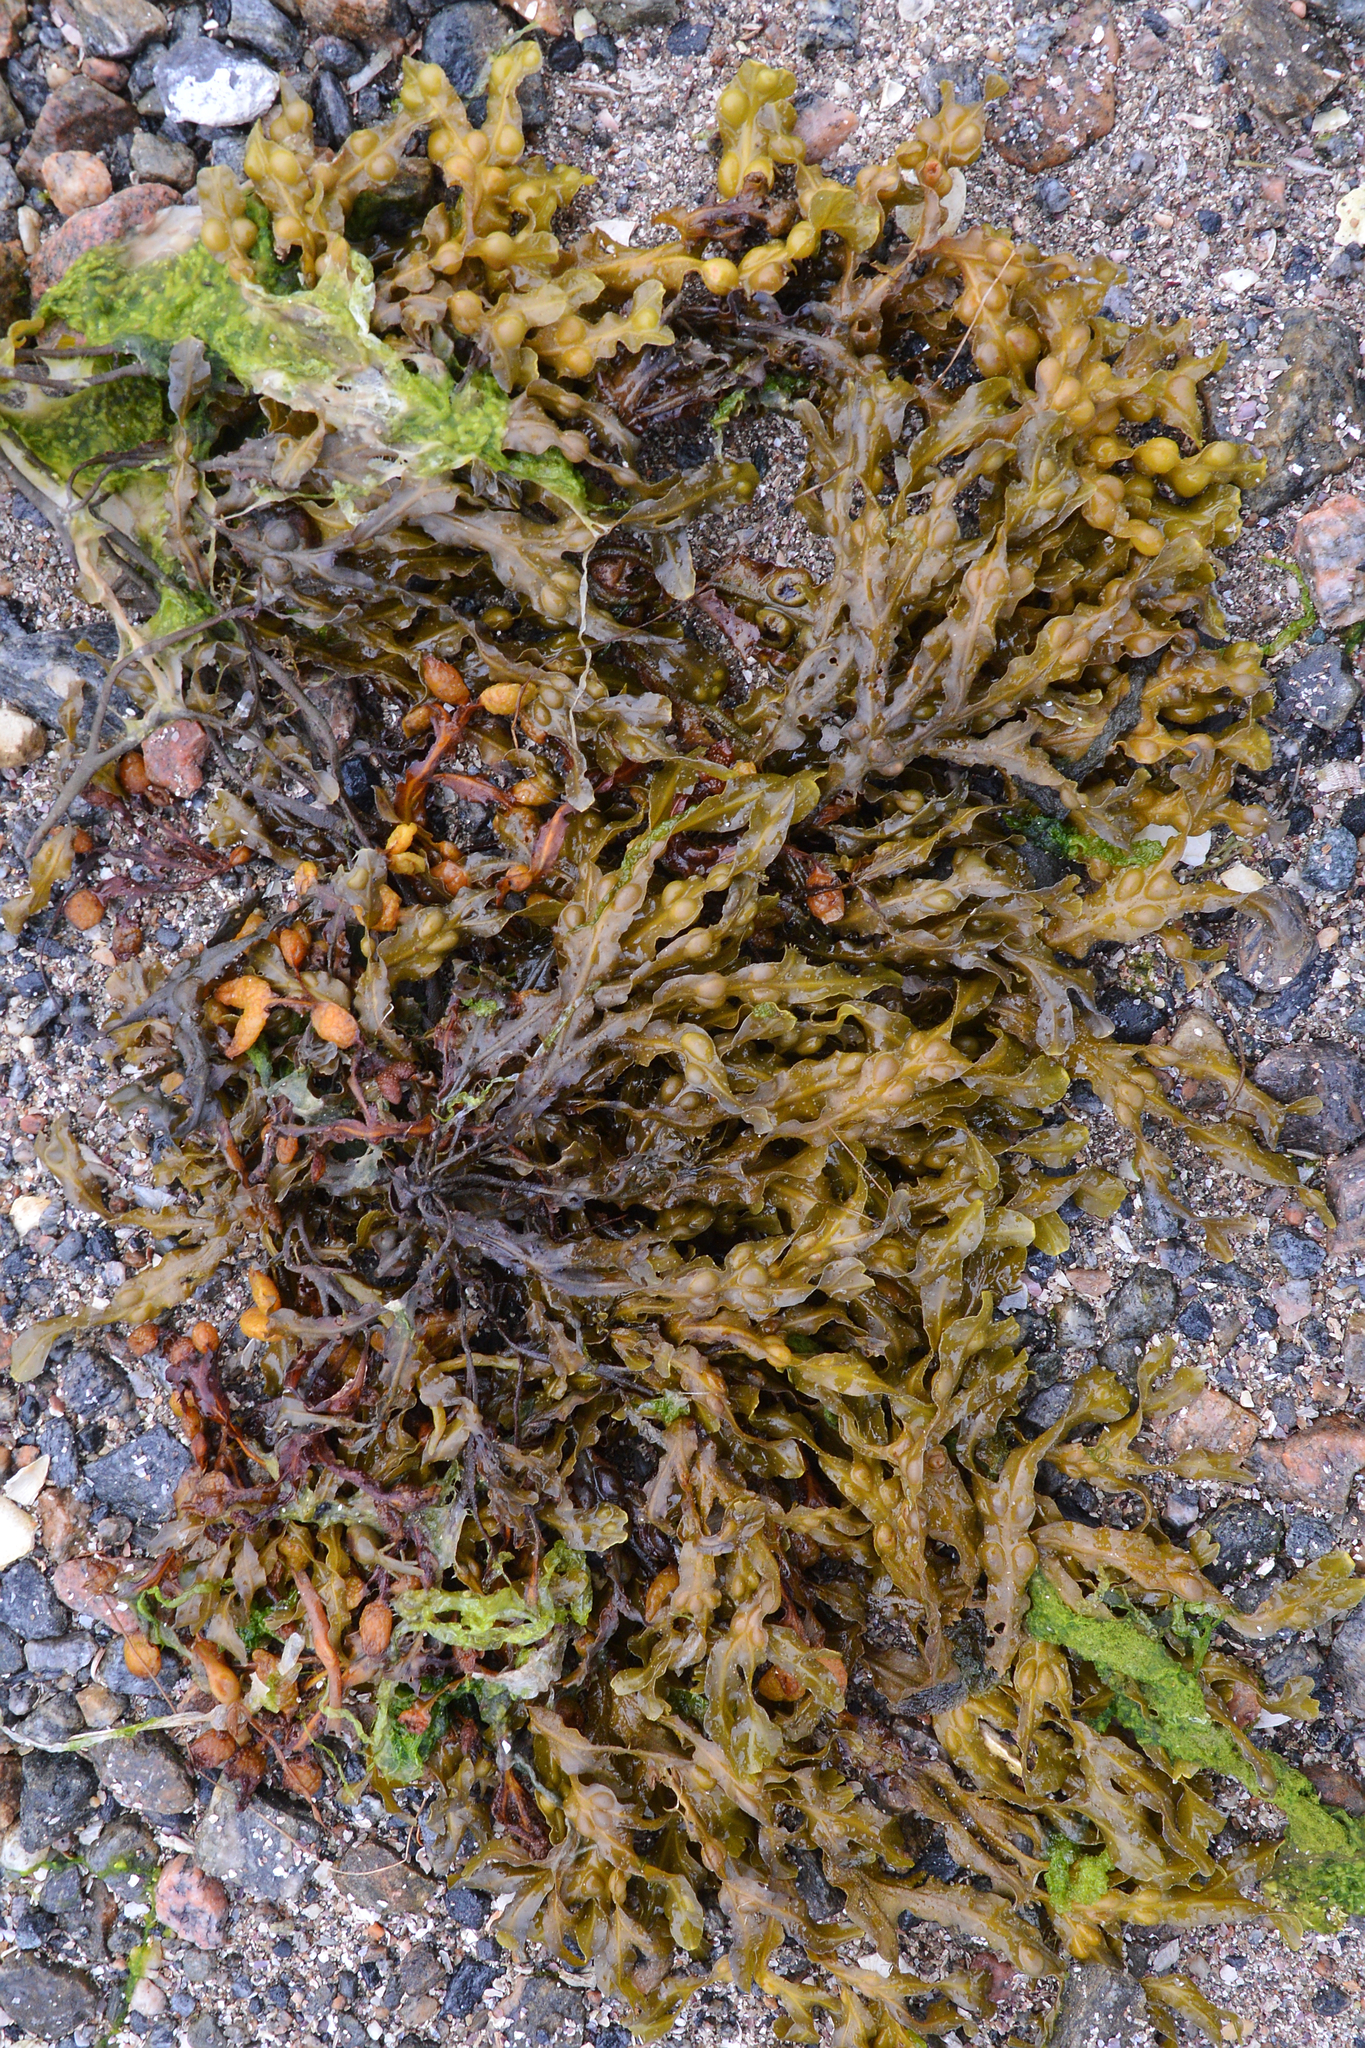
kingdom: Chromista
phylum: Ochrophyta
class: Phaeophyceae
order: Fucales
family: Fucaceae
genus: Fucus
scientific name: Fucus vesiculosus
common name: Bladder wrack
